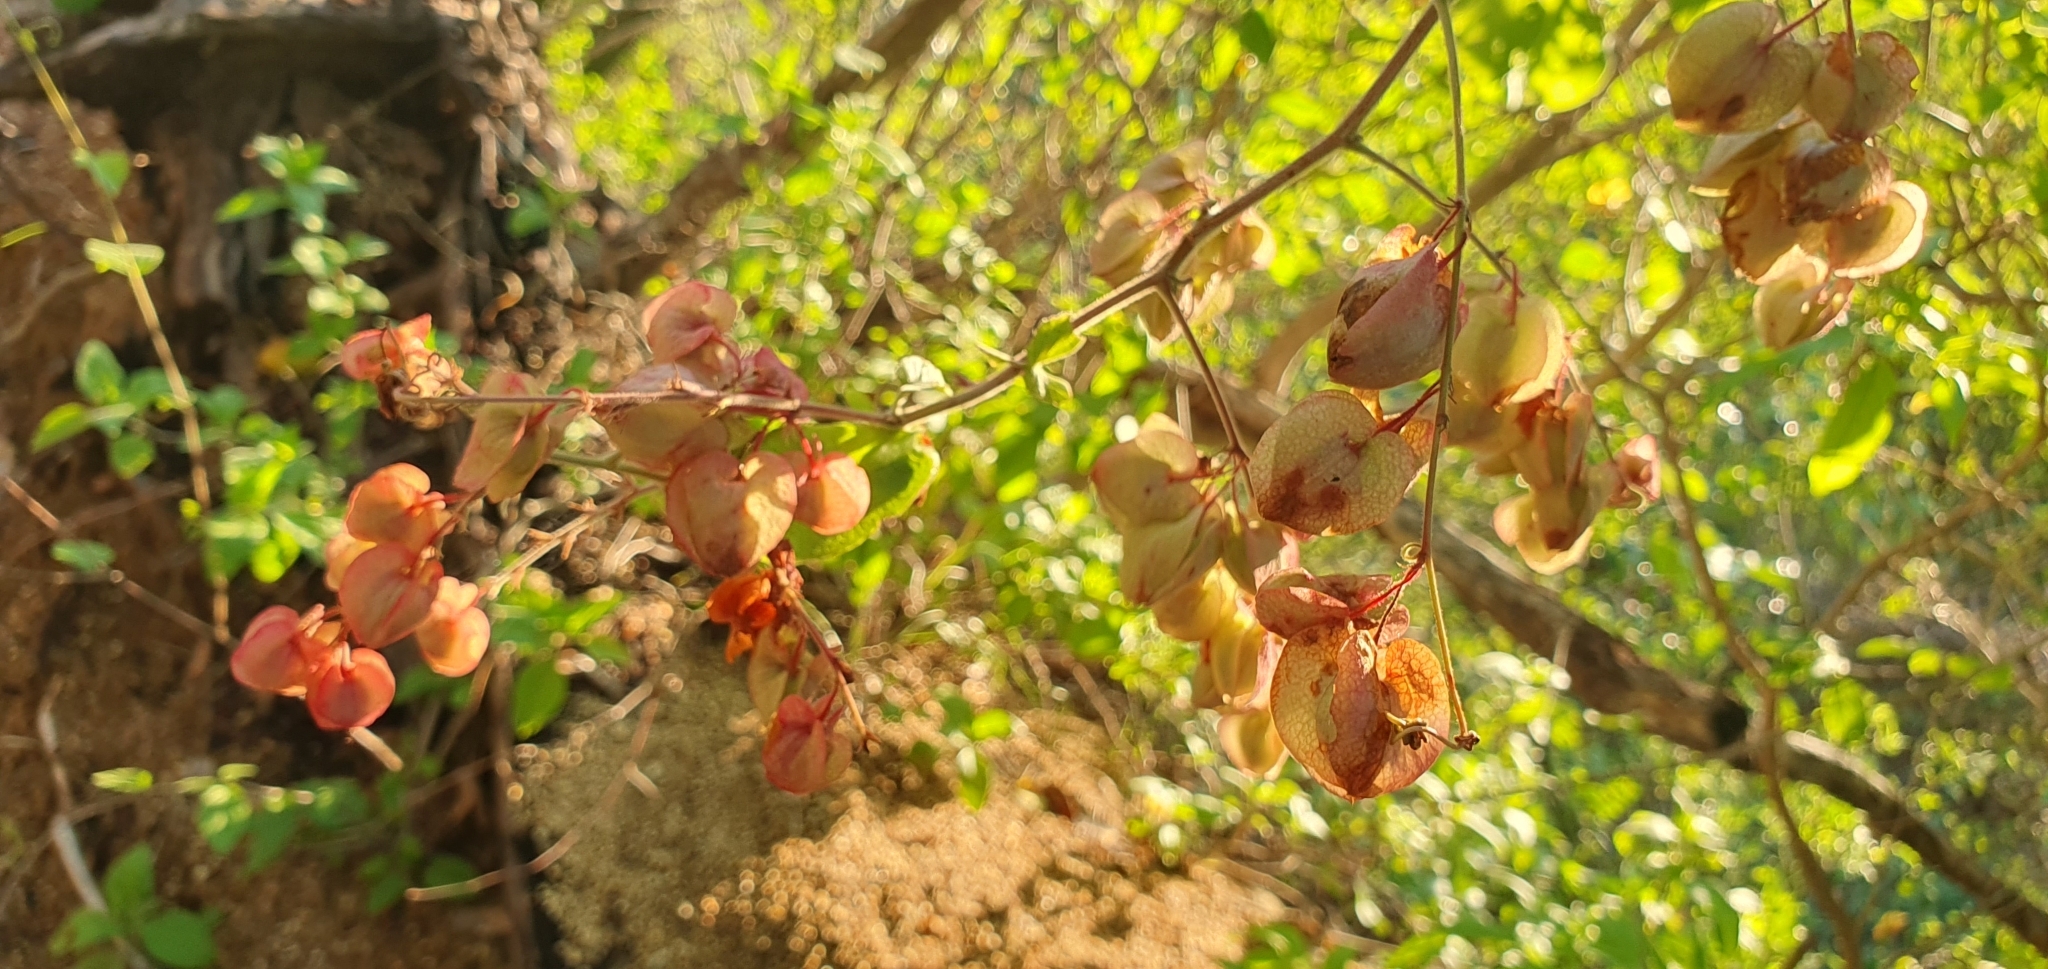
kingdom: Plantae
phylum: Tracheophyta
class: Magnoliopsida
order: Caryophyllales
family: Polygonaceae
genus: Antigonon
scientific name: Antigonon leptopus
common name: Coral vine
